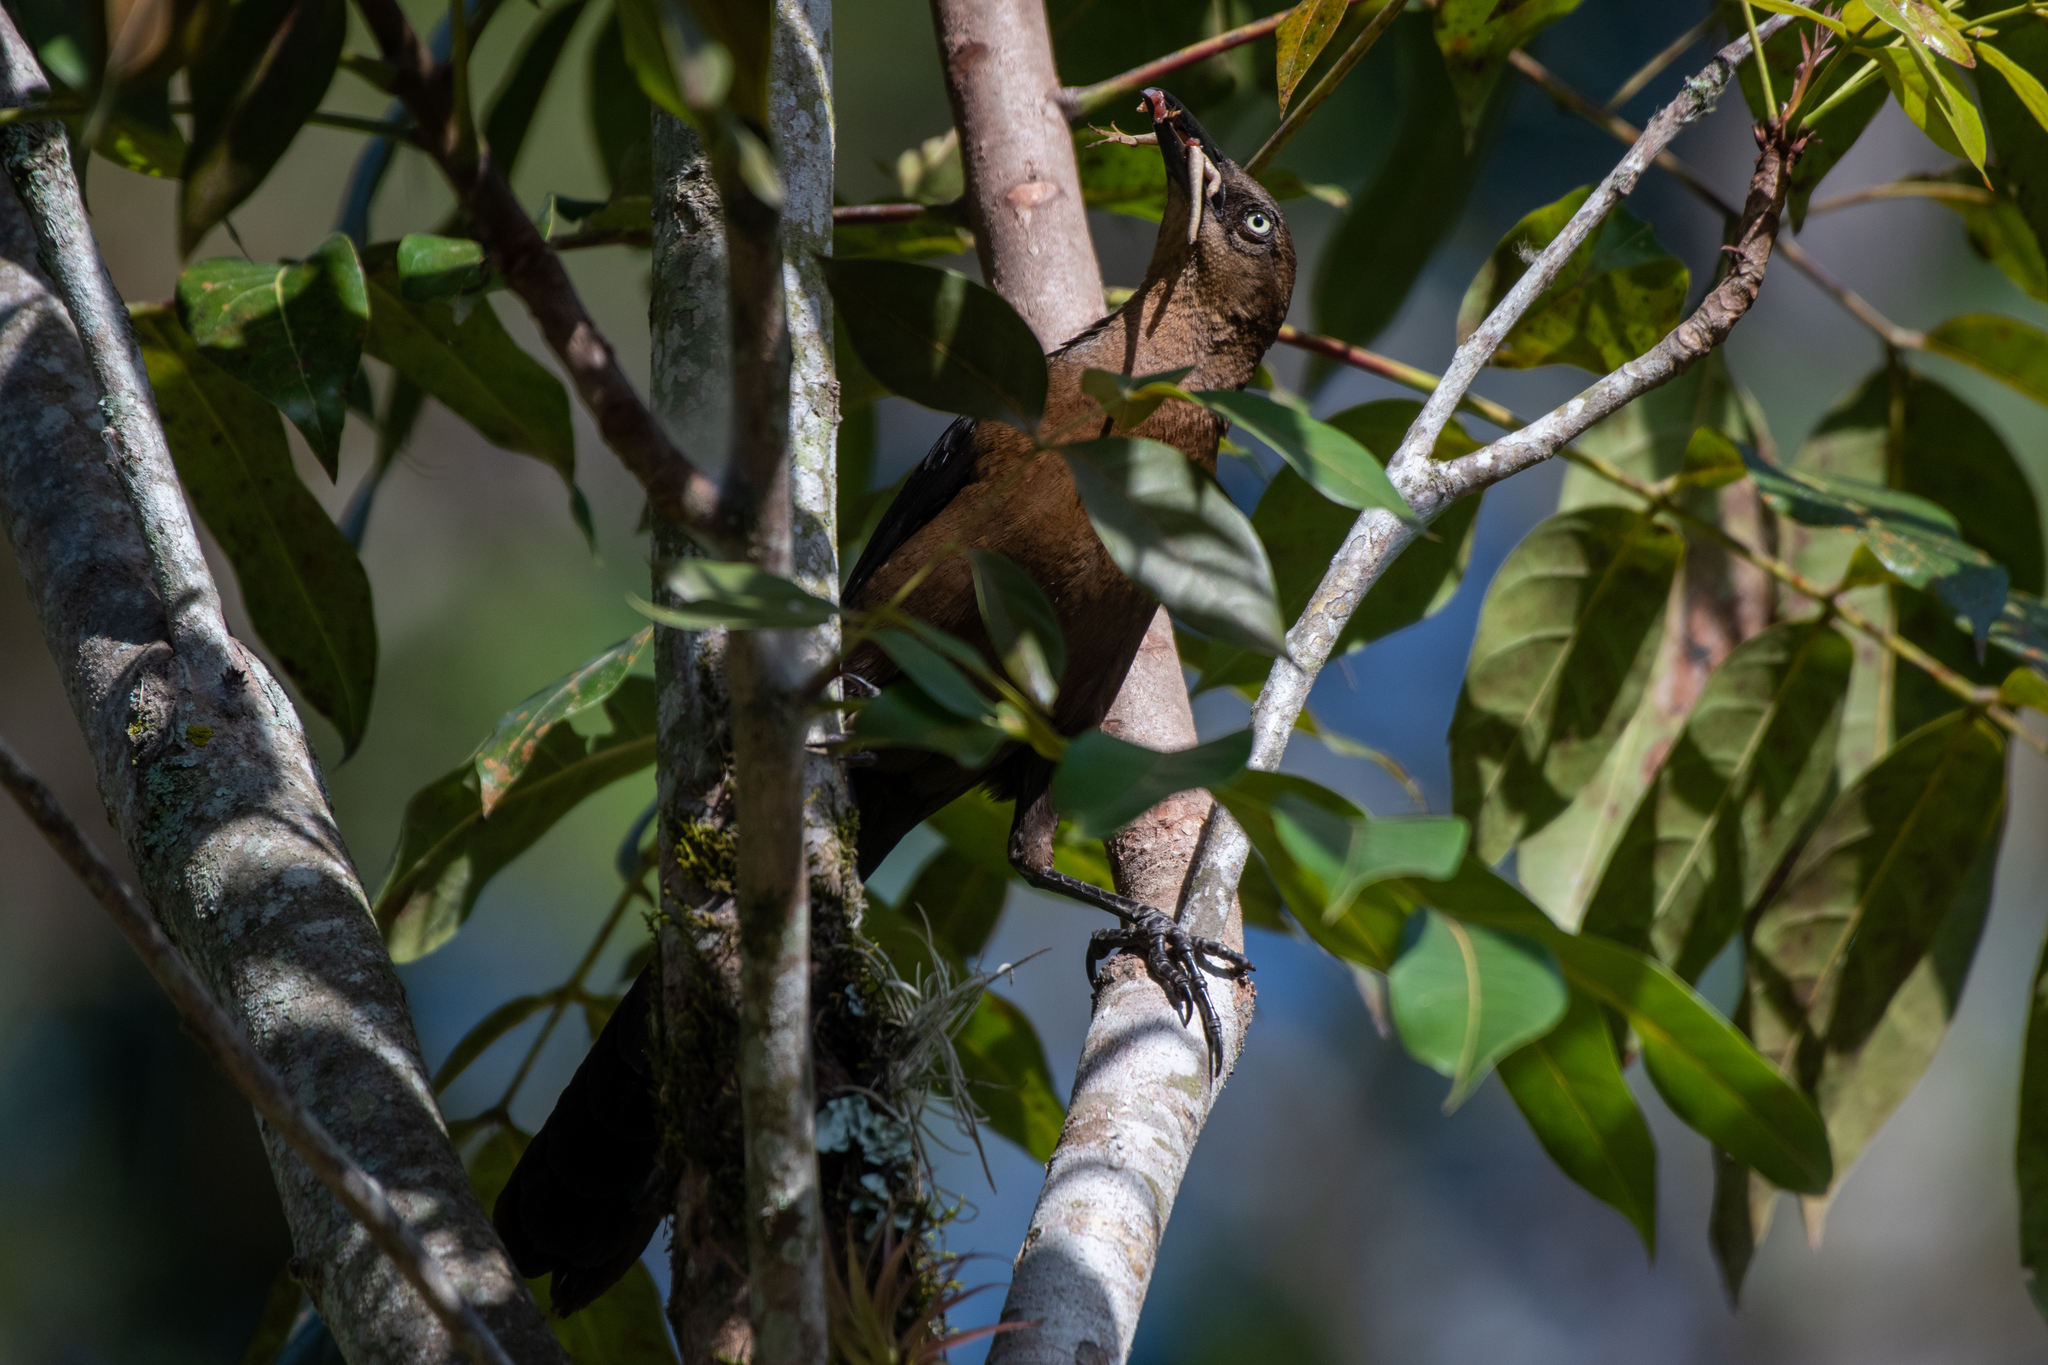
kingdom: Animalia
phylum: Chordata
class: Aves
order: Passeriformes
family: Icteridae
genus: Quiscalus
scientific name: Quiscalus mexicanus
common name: Great-tailed grackle
